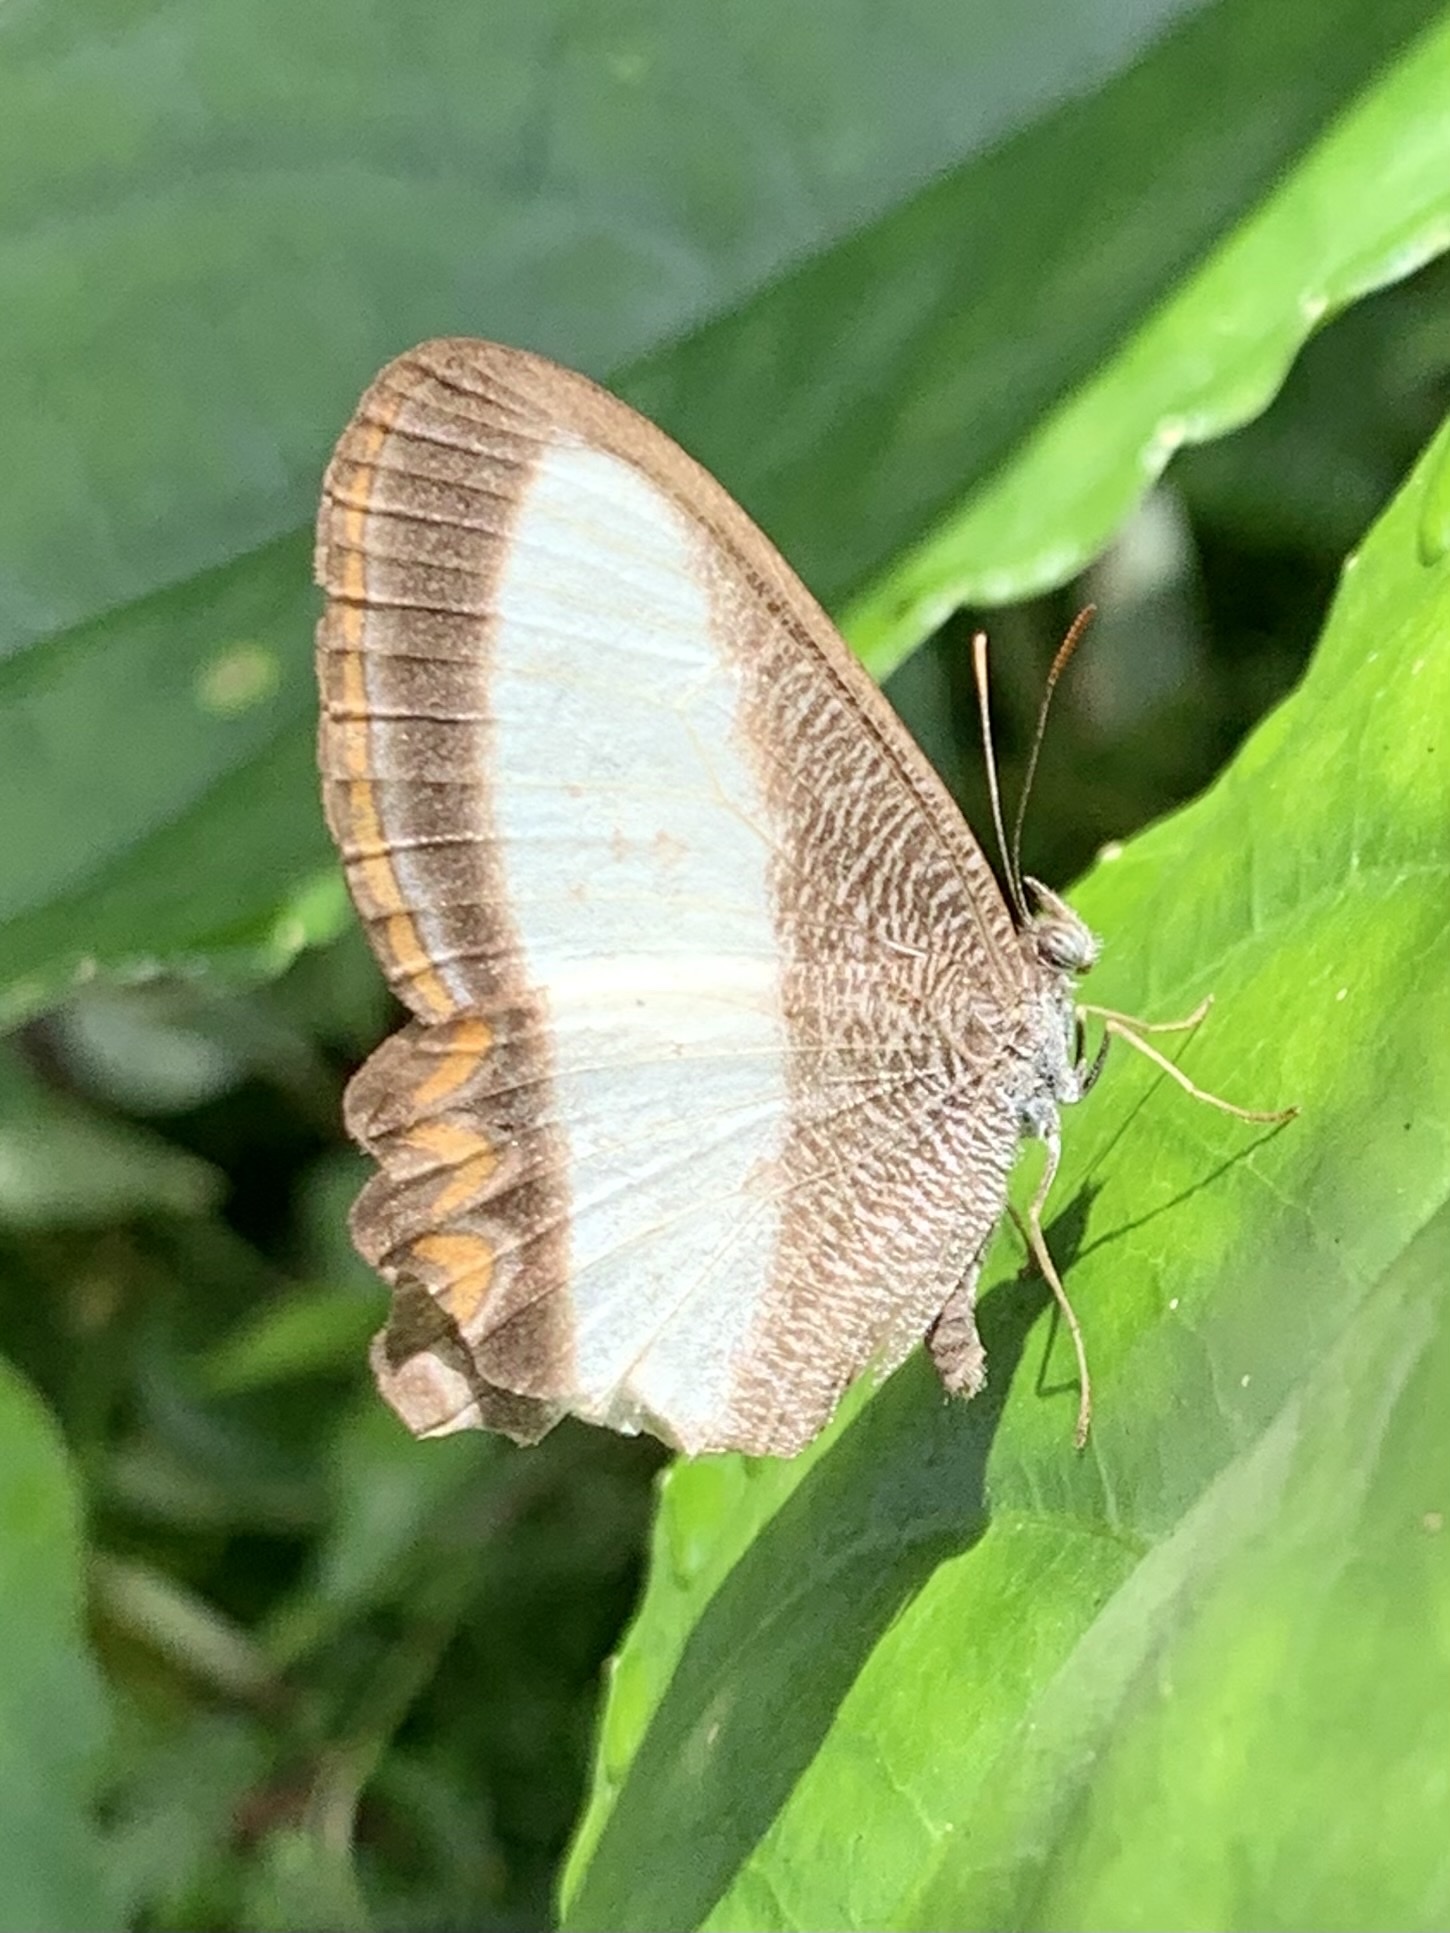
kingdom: Animalia
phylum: Arthropoda
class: Insecta
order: Lepidoptera
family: Nymphalidae
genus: Oressinoma
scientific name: Oressinoma typhla
